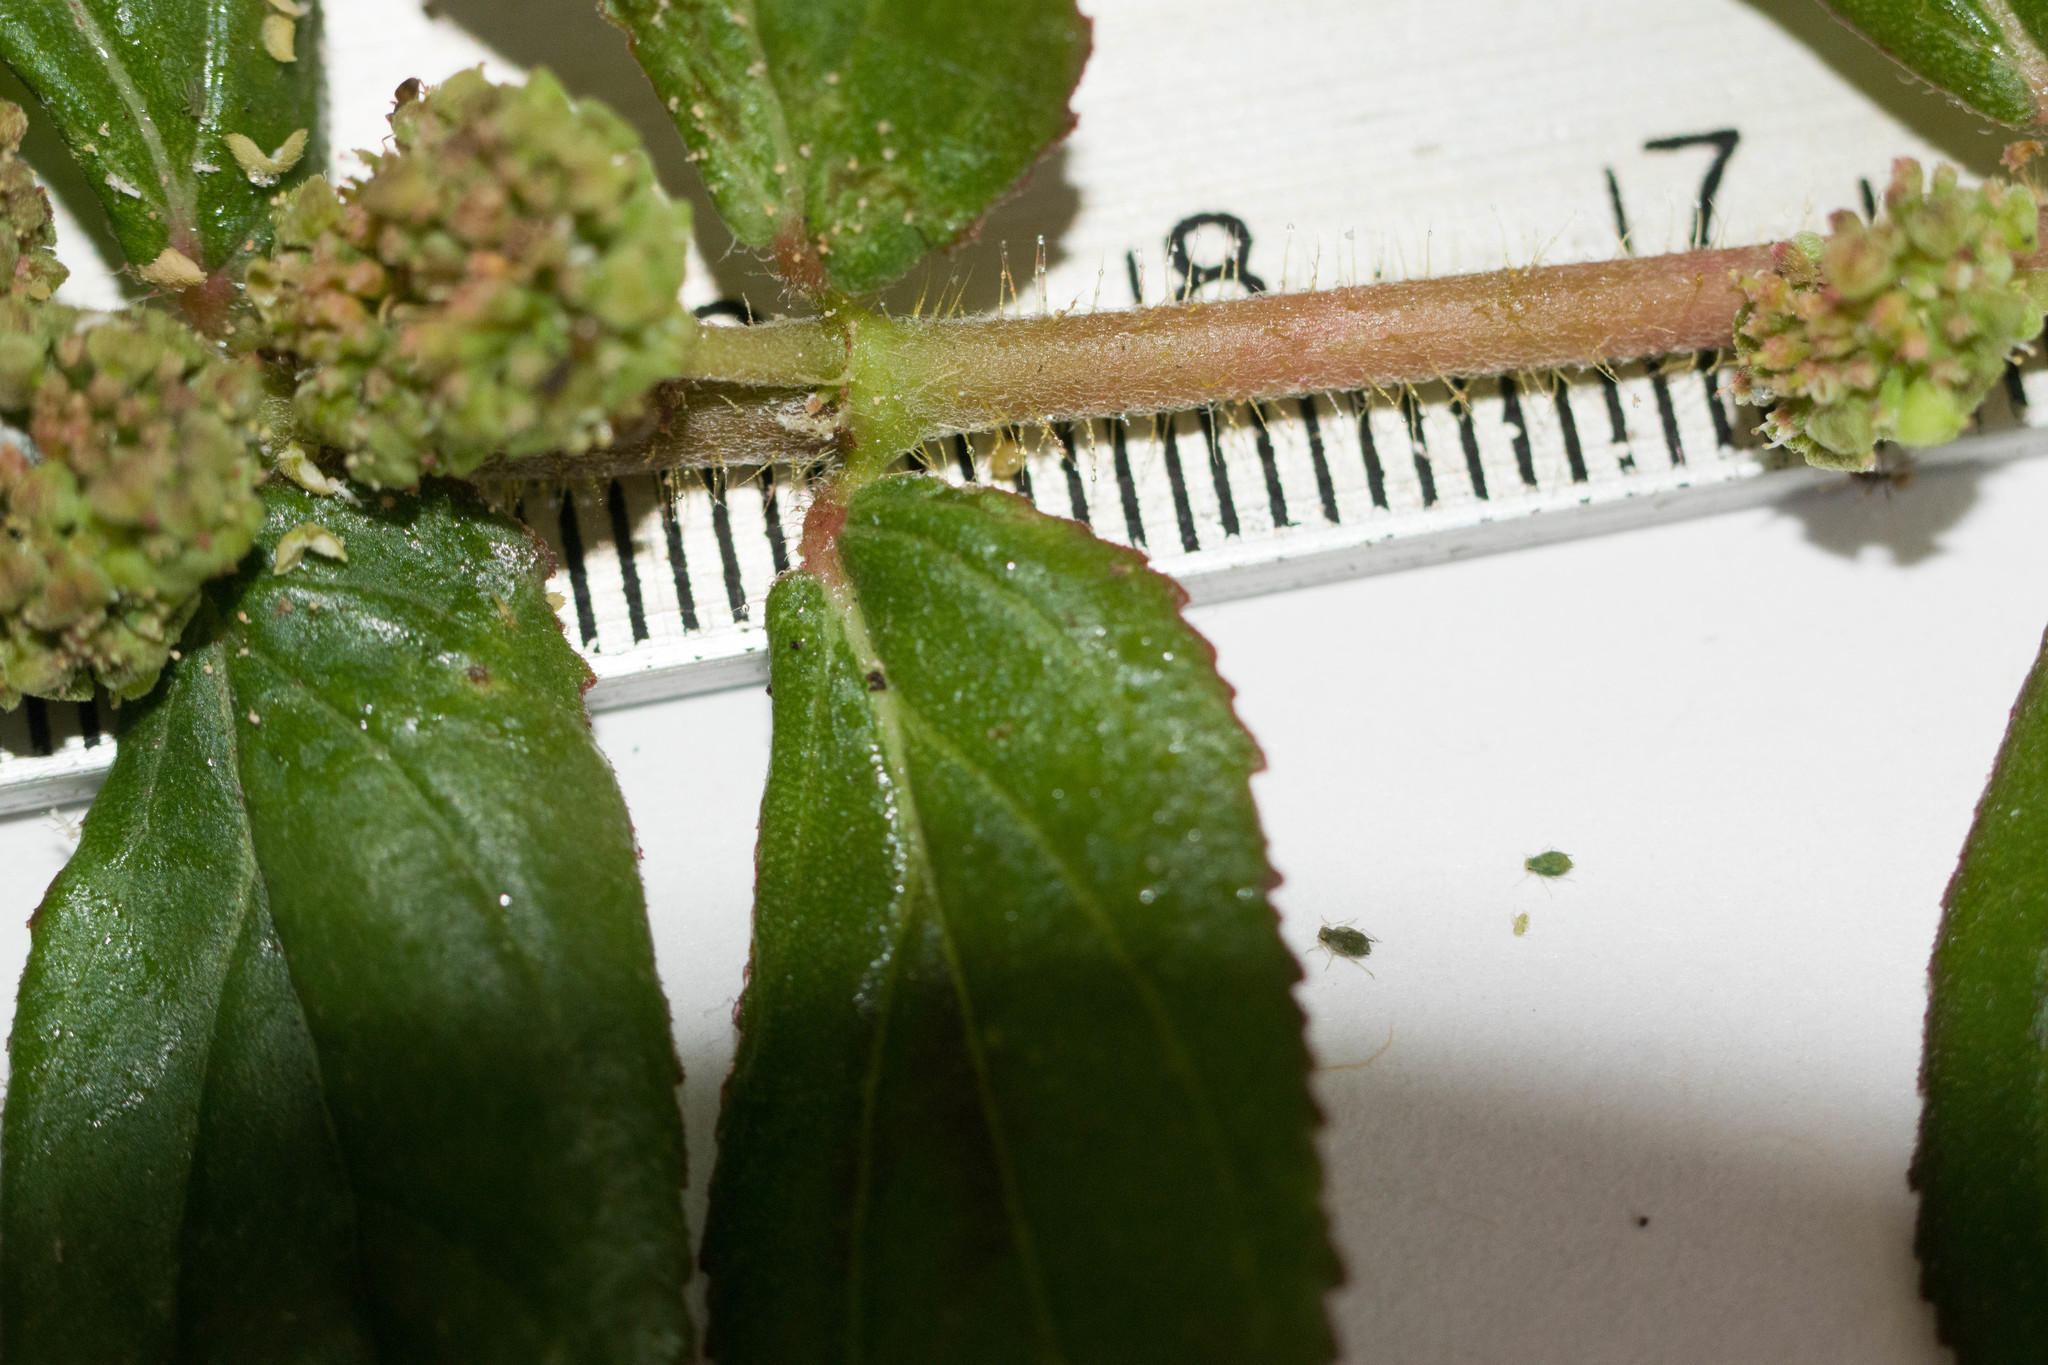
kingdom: Plantae
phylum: Tracheophyta
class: Magnoliopsida
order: Malpighiales
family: Euphorbiaceae
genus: Euphorbia
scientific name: Euphorbia hirta
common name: Pillpod sandmat
